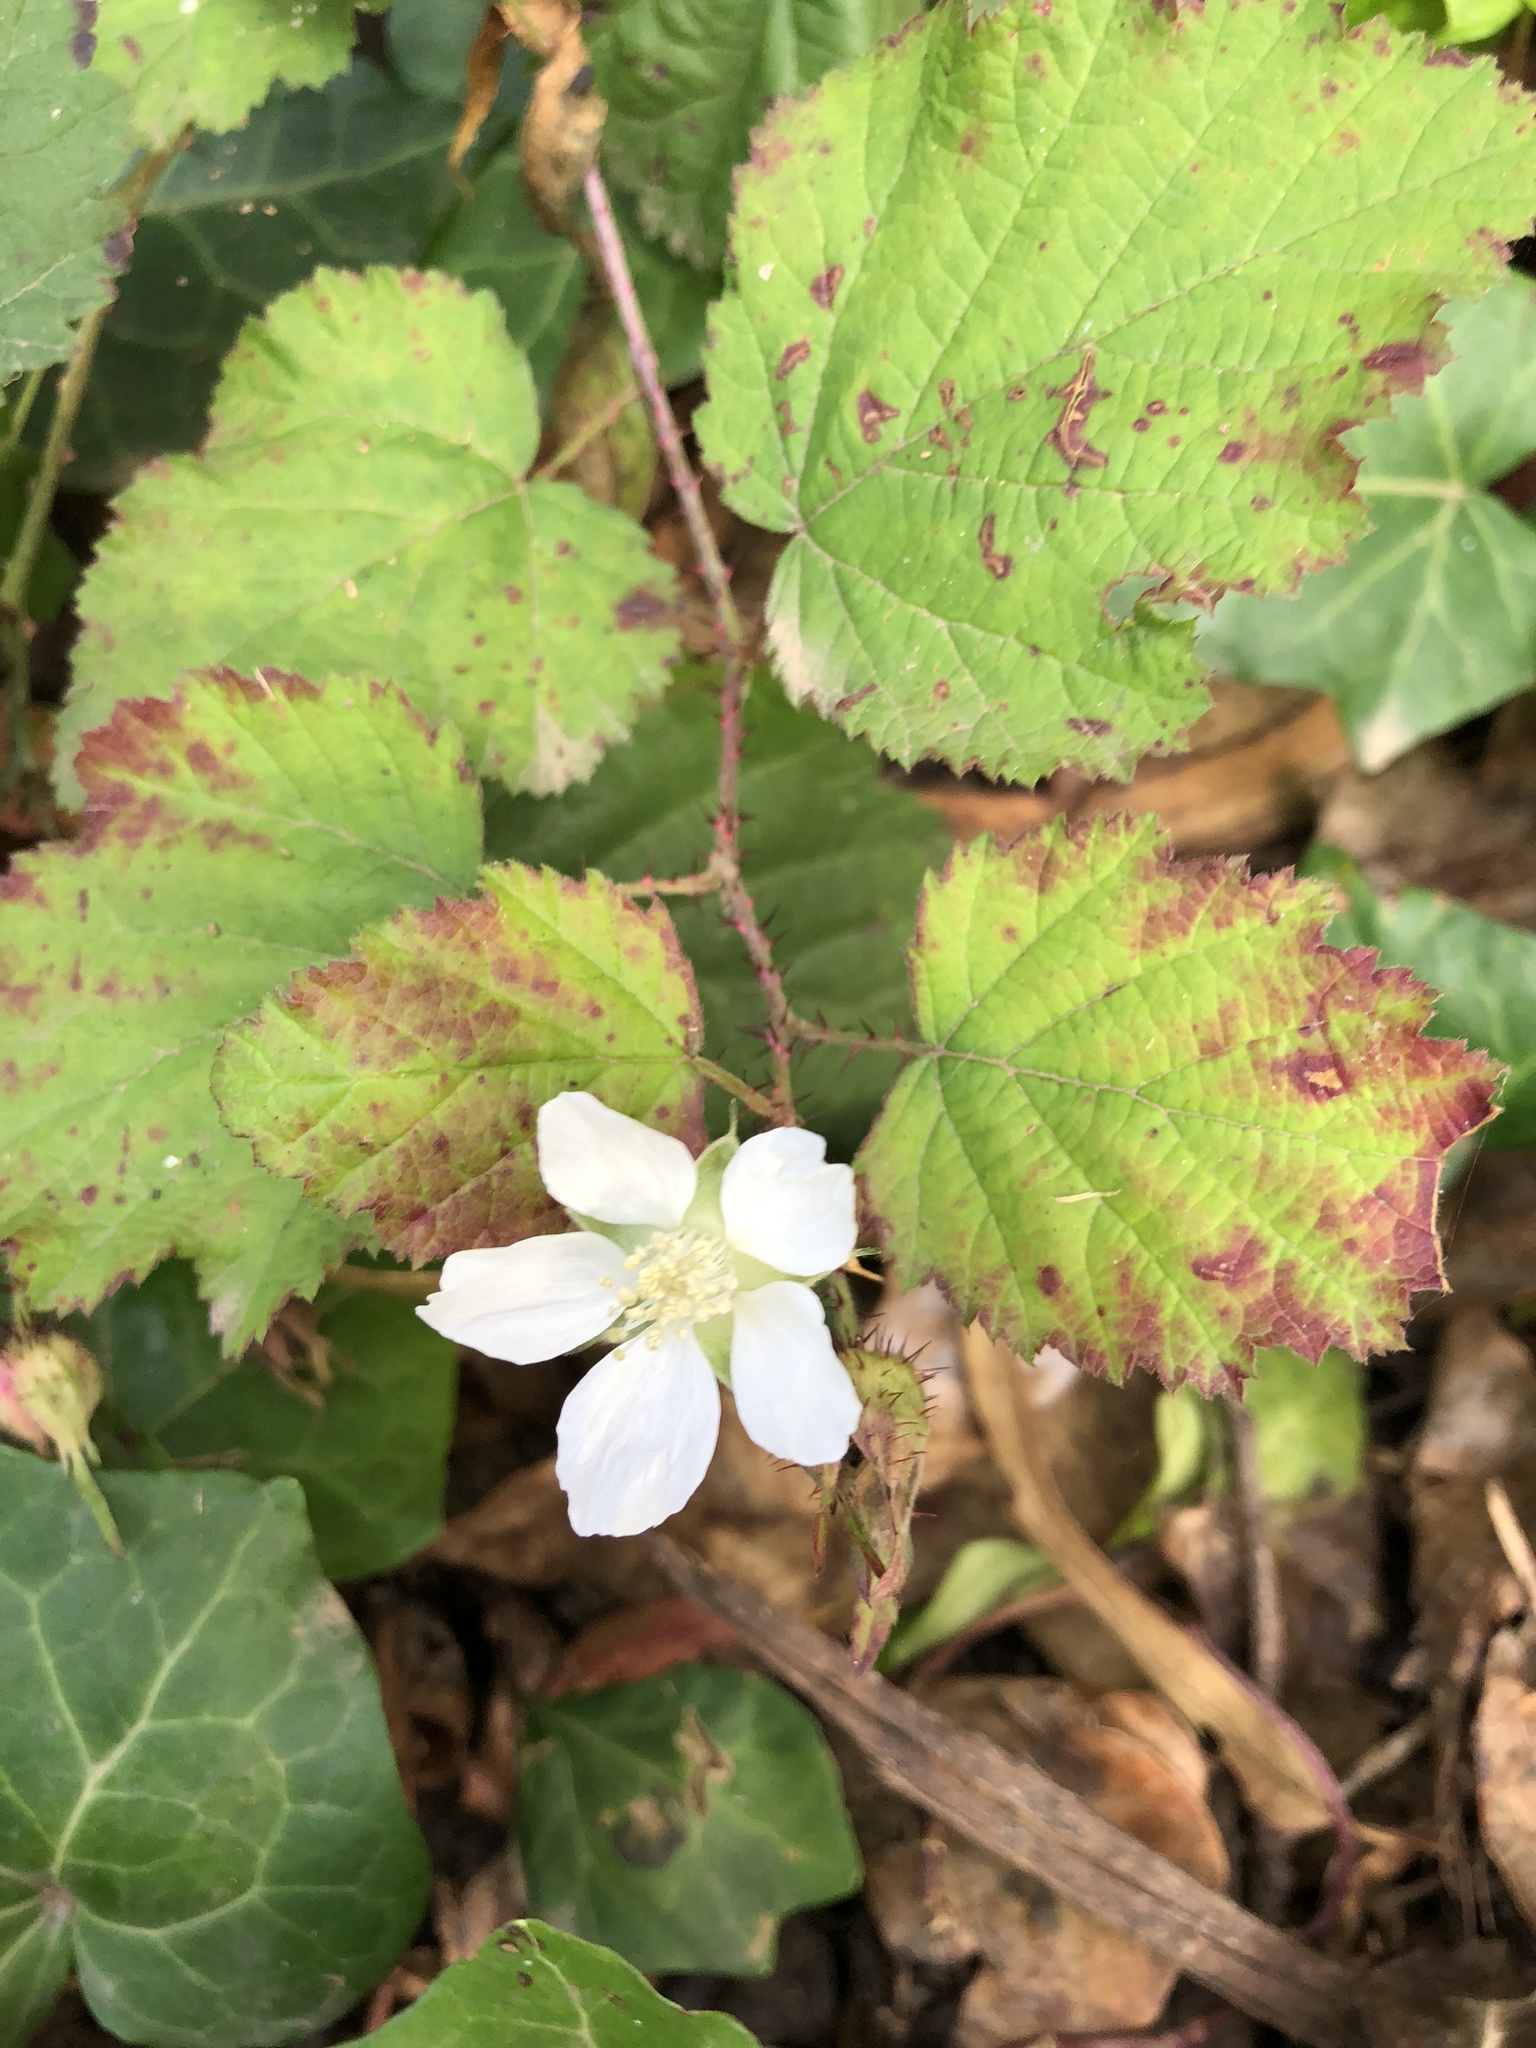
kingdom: Plantae
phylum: Tracheophyta
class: Magnoliopsida
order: Rosales
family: Rosaceae
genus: Rubus
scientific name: Rubus ursinus
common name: Pacific blackberry
